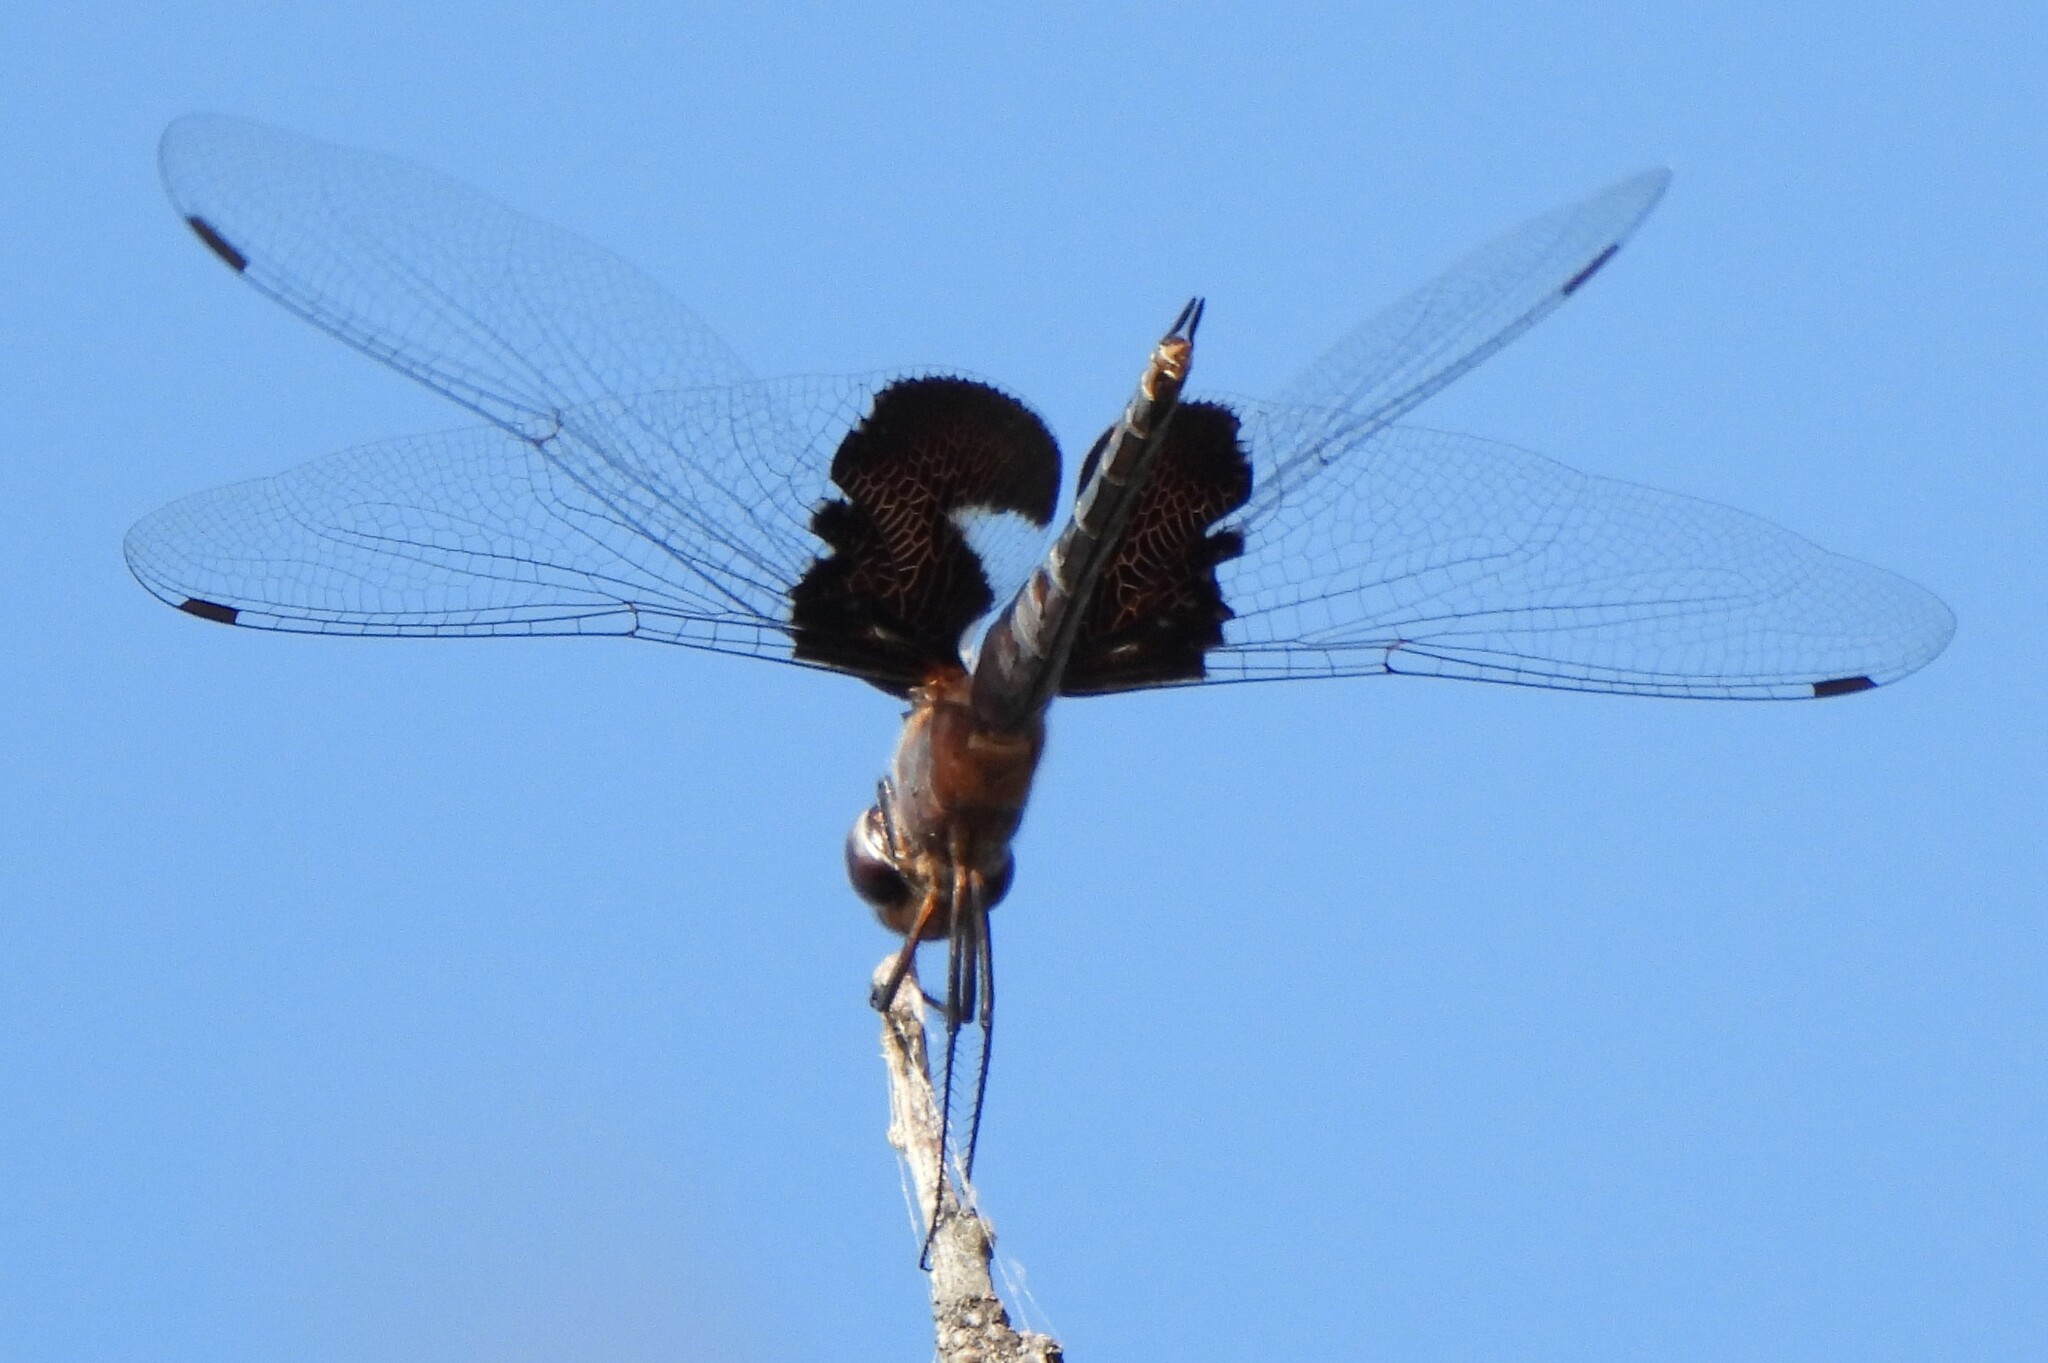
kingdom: Animalia
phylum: Arthropoda
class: Insecta
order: Odonata
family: Libellulidae
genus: Tramea
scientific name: Tramea lacerata
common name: Black saddlebags
